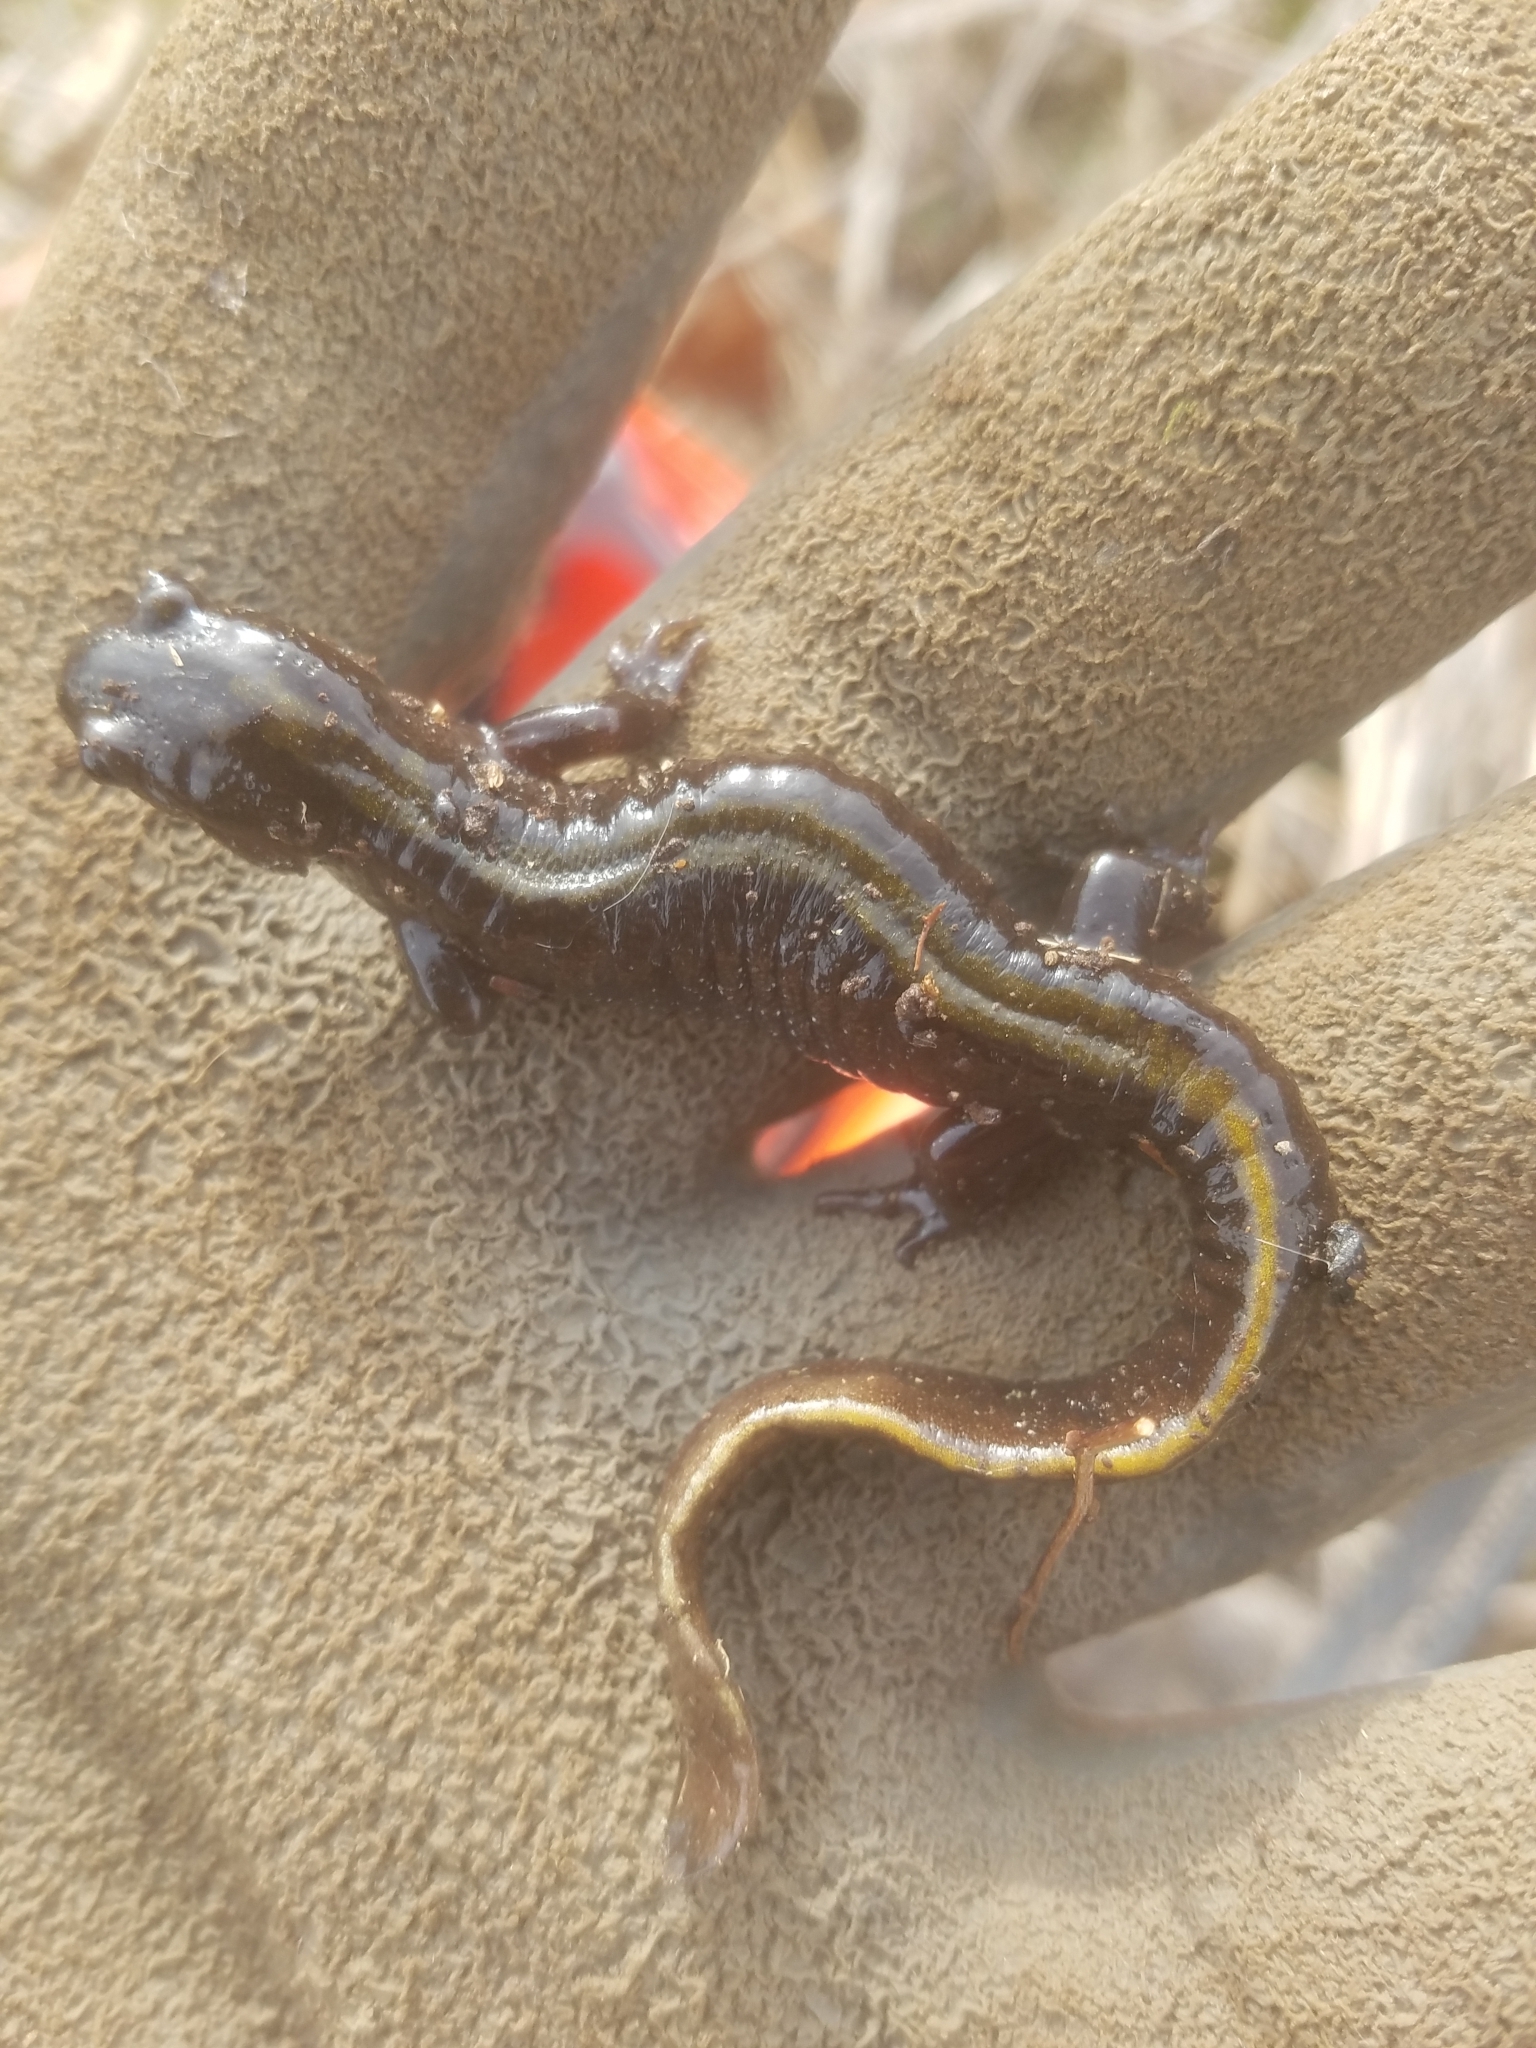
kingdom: Animalia
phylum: Chordata
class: Amphibia
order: Caudata
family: Ambystomatidae
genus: Ambystoma
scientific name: Ambystoma macrodactylum
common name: Long-toed salamander
